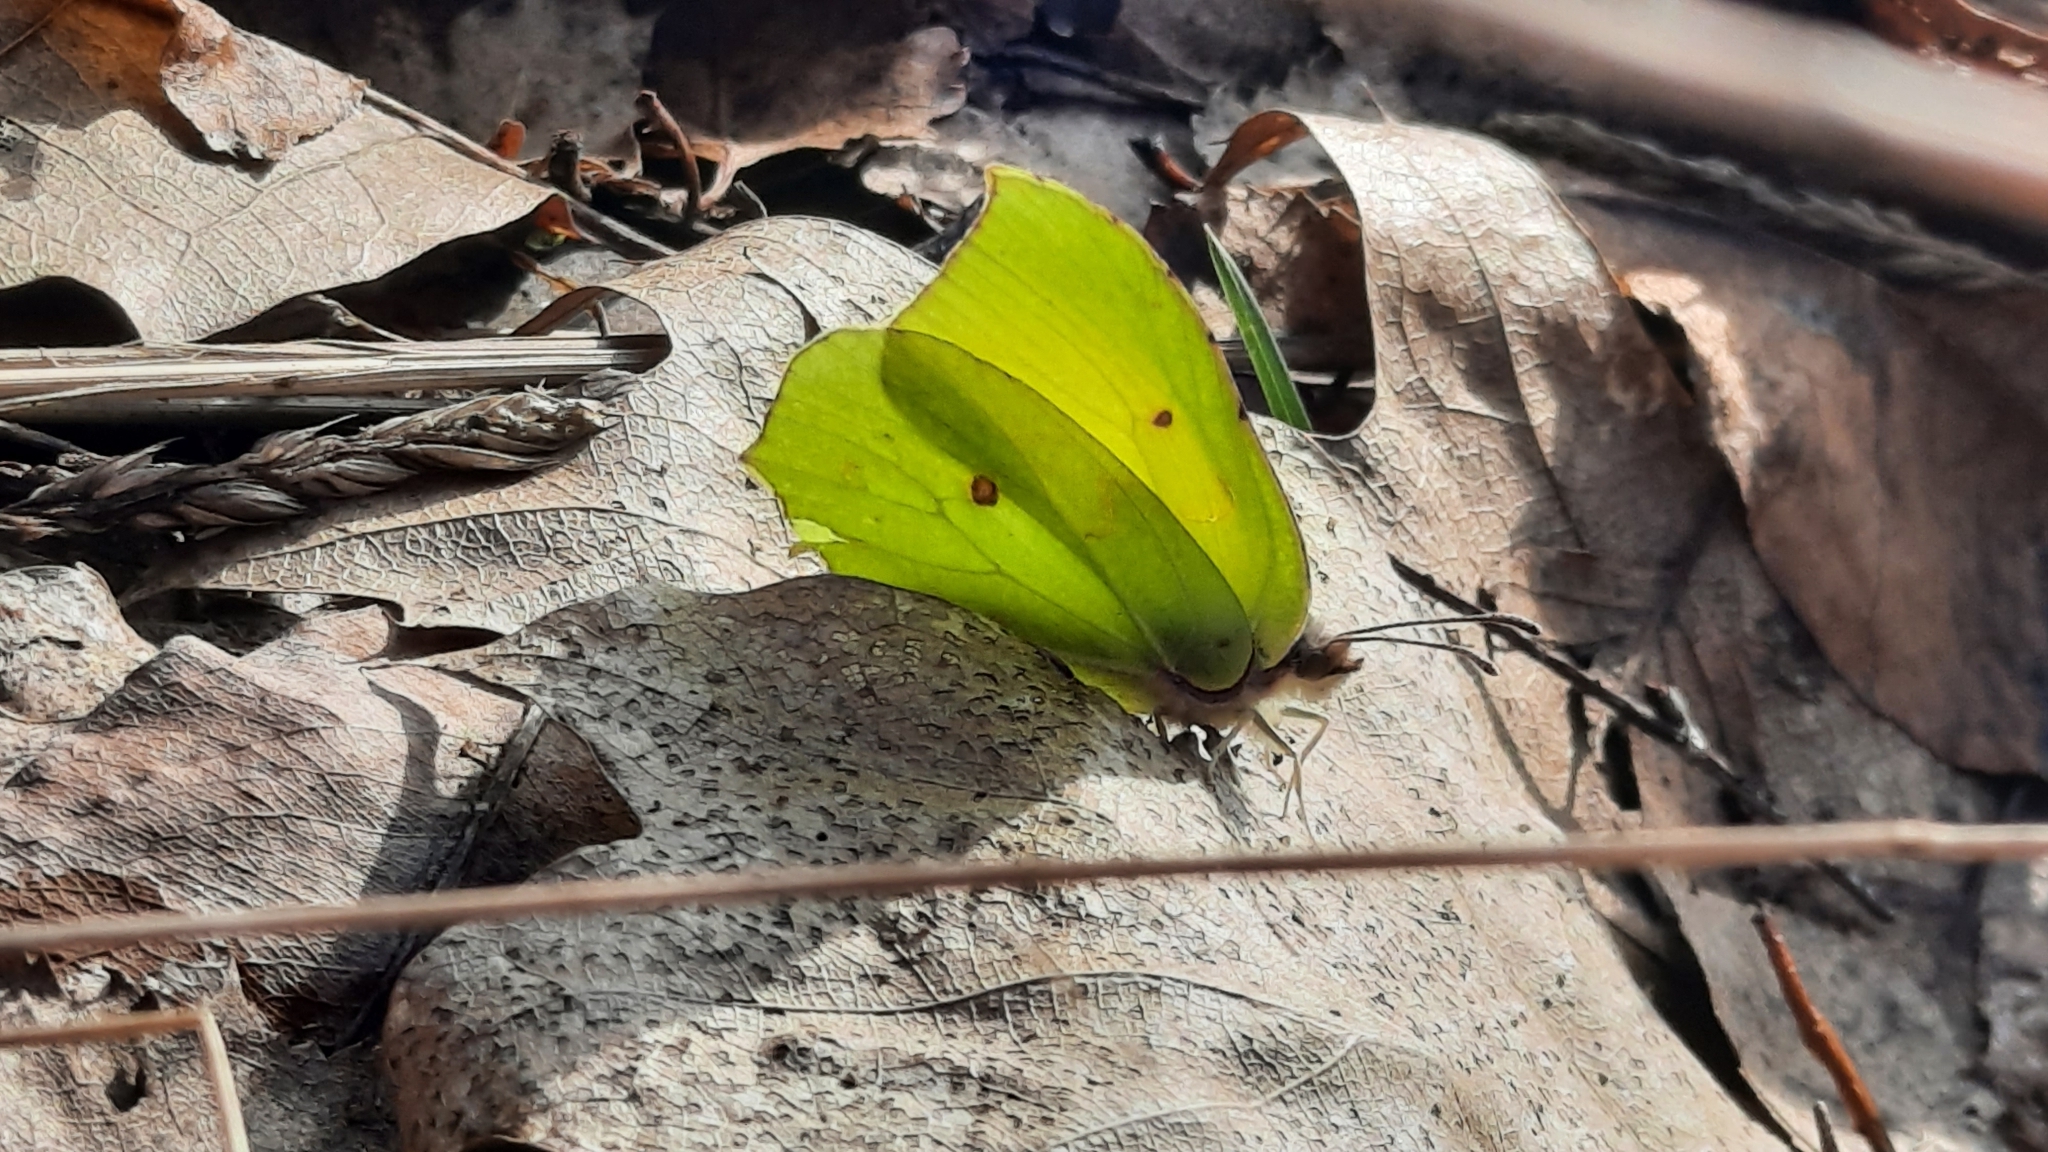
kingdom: Animalia
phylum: Arthropoda
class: Insecta
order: Lepidoptera
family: Pieridae
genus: Gonepteryx
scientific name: Gonepteryx rhamni
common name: Brimstone
